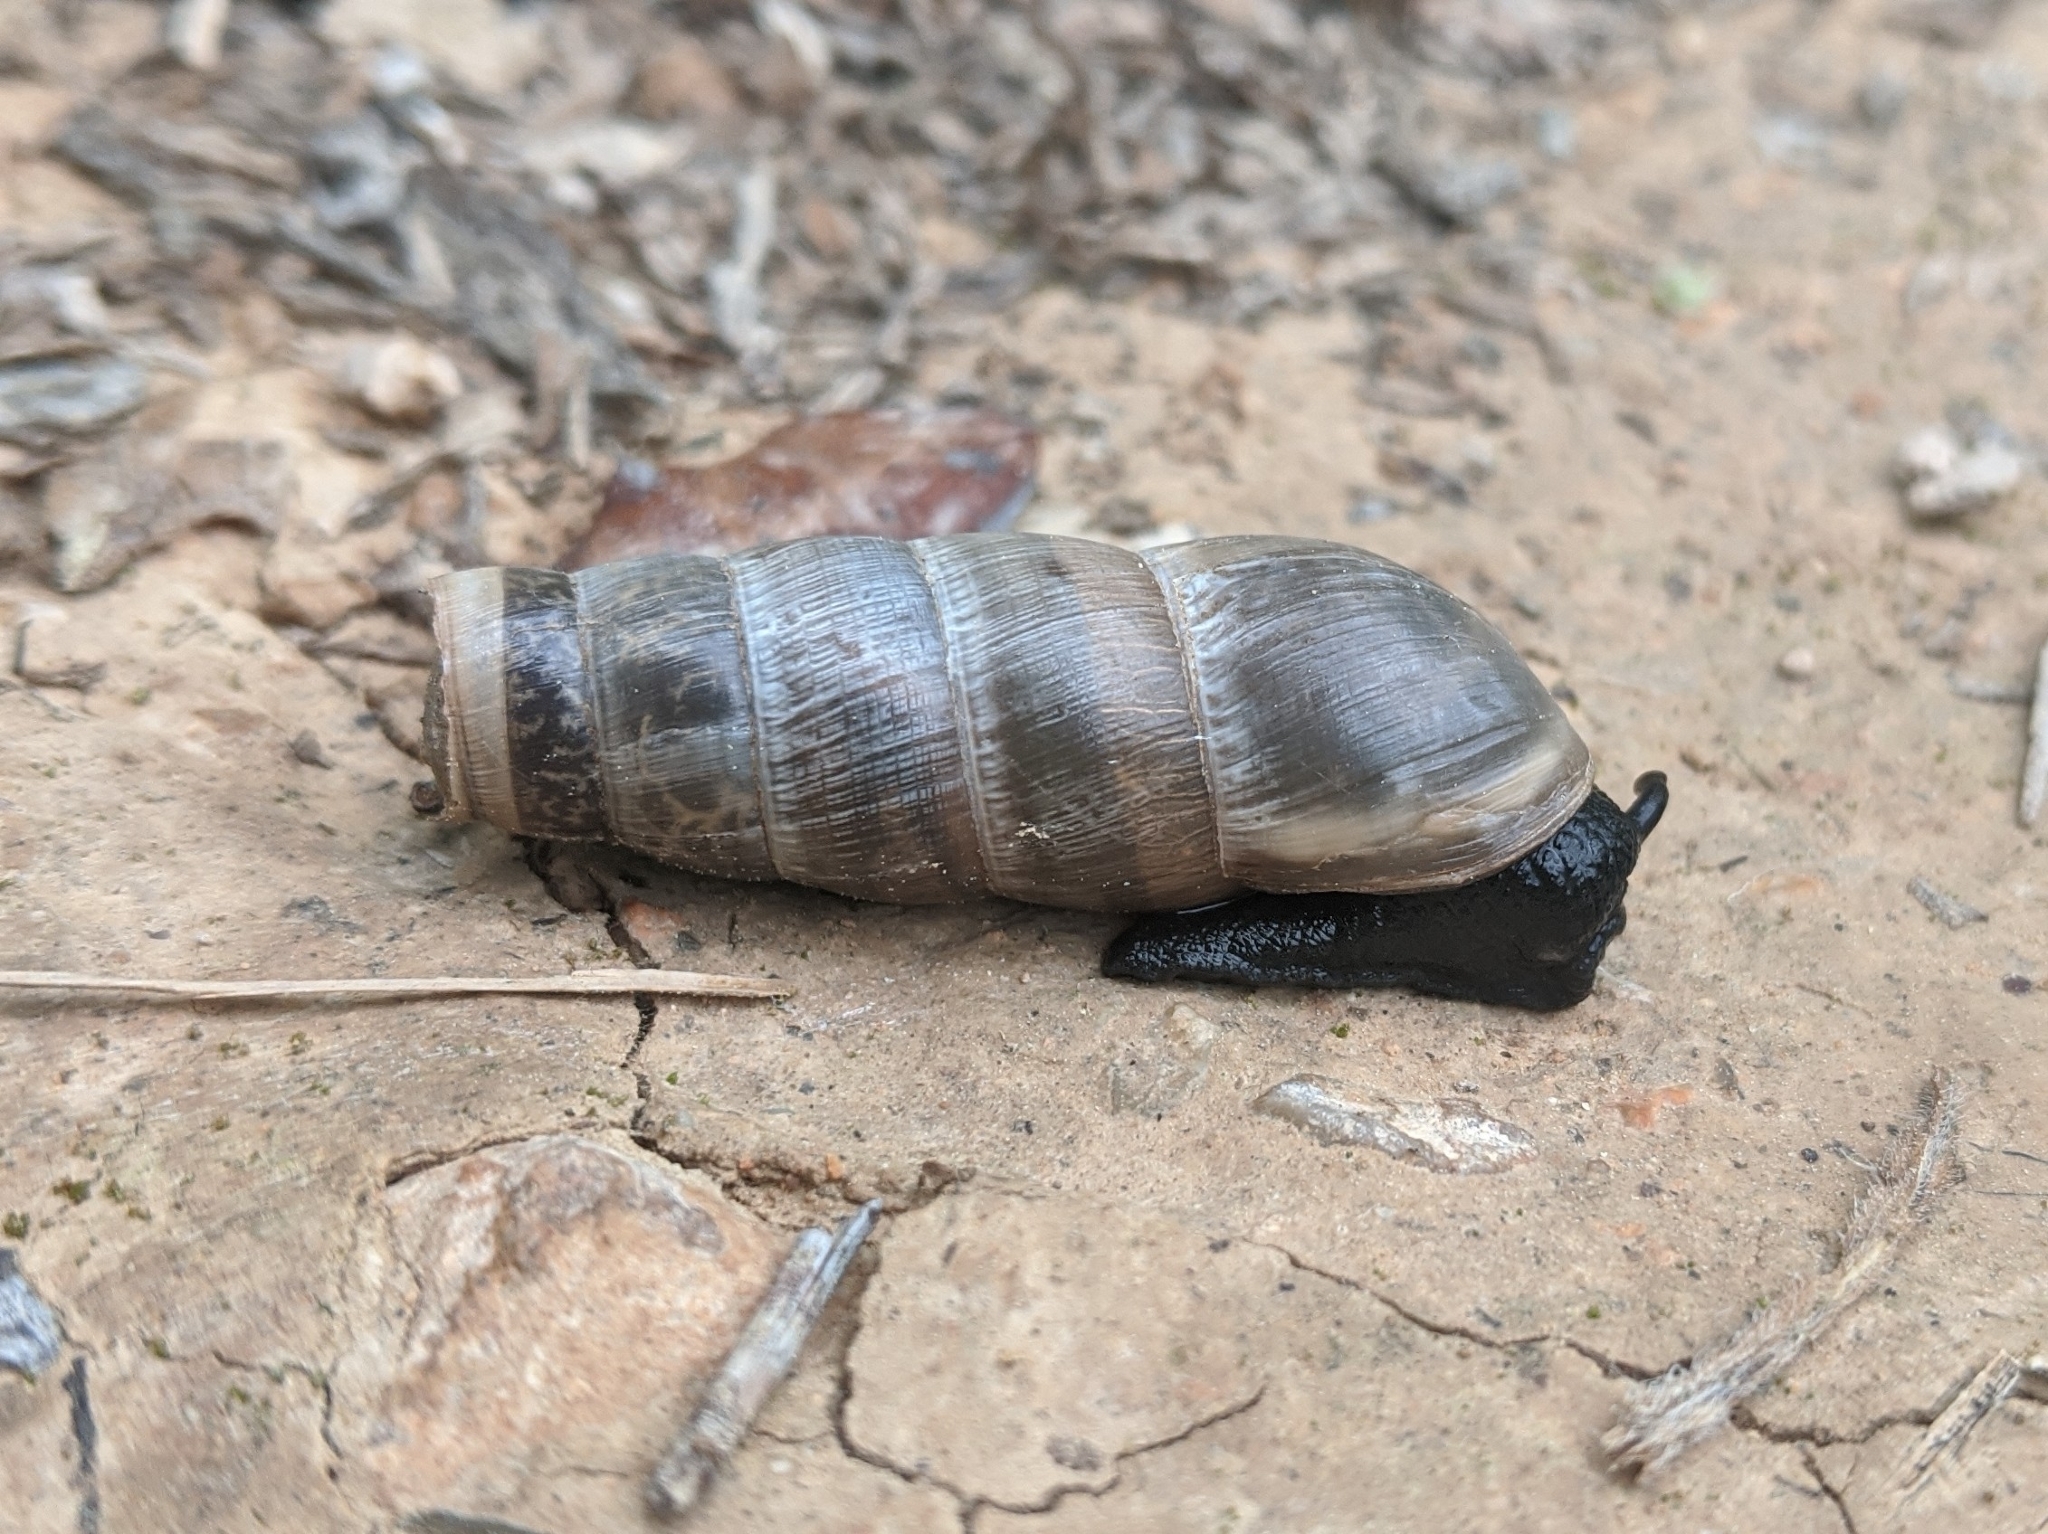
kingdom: Animalia
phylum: Mollusca
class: Gastropoda
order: Stylommatophora
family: Achatinidae
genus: Rumina
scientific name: Rumina decollata
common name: Decollate snail
